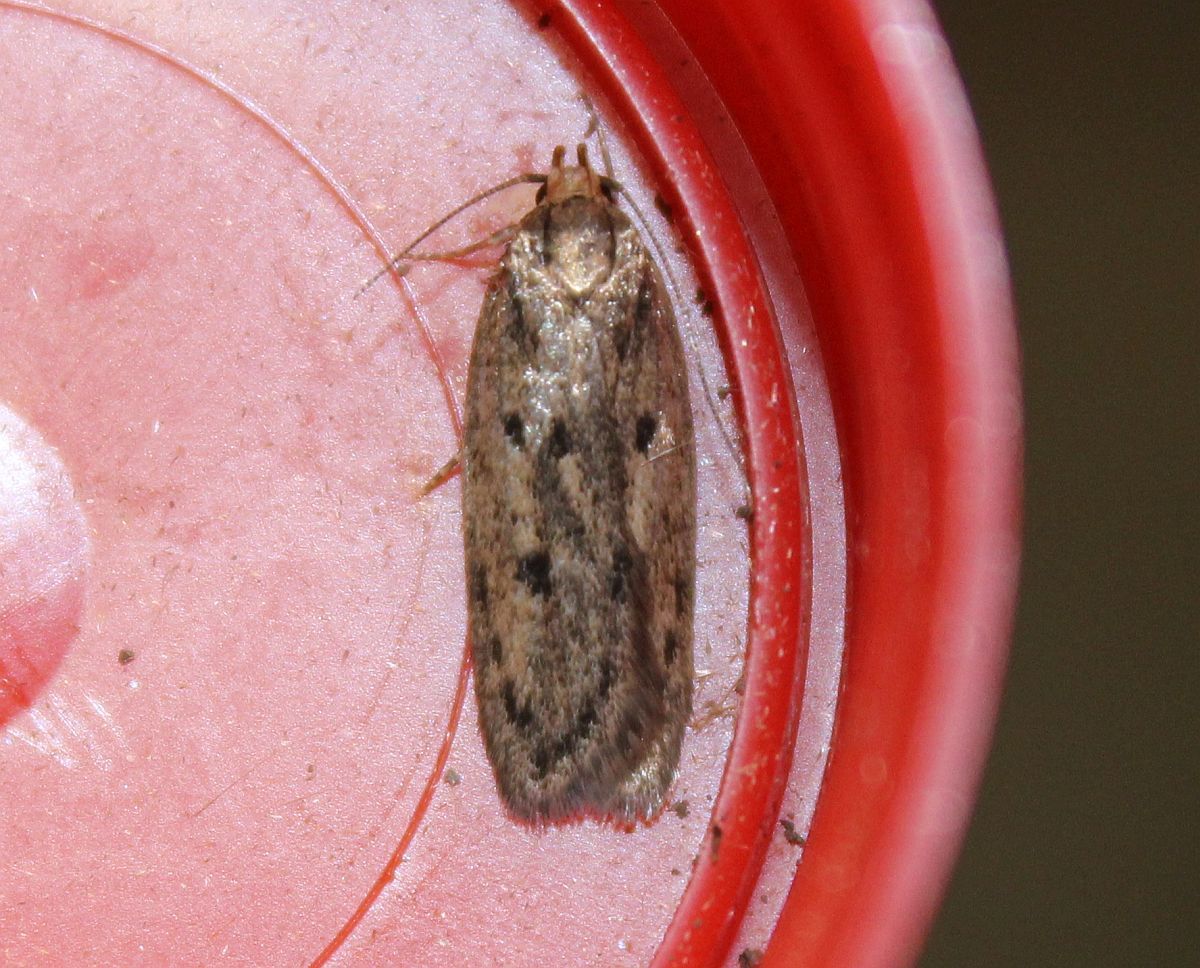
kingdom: Animalia
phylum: Arthropoda
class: Insecta
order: Lepidoptera
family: Oecophoridae
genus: Hofmannophila
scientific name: Hofmannophila pseudospretella
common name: Brown house moth
